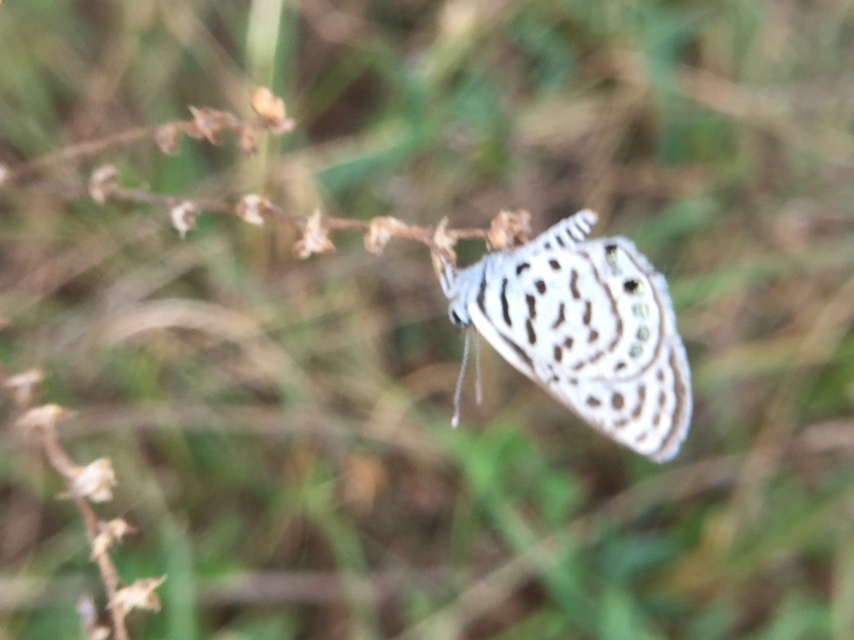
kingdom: Animalia
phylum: Arthropoda
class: Insecta
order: Lepidoptera
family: Lycaenidae
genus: Tarucus
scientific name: Tarucus
